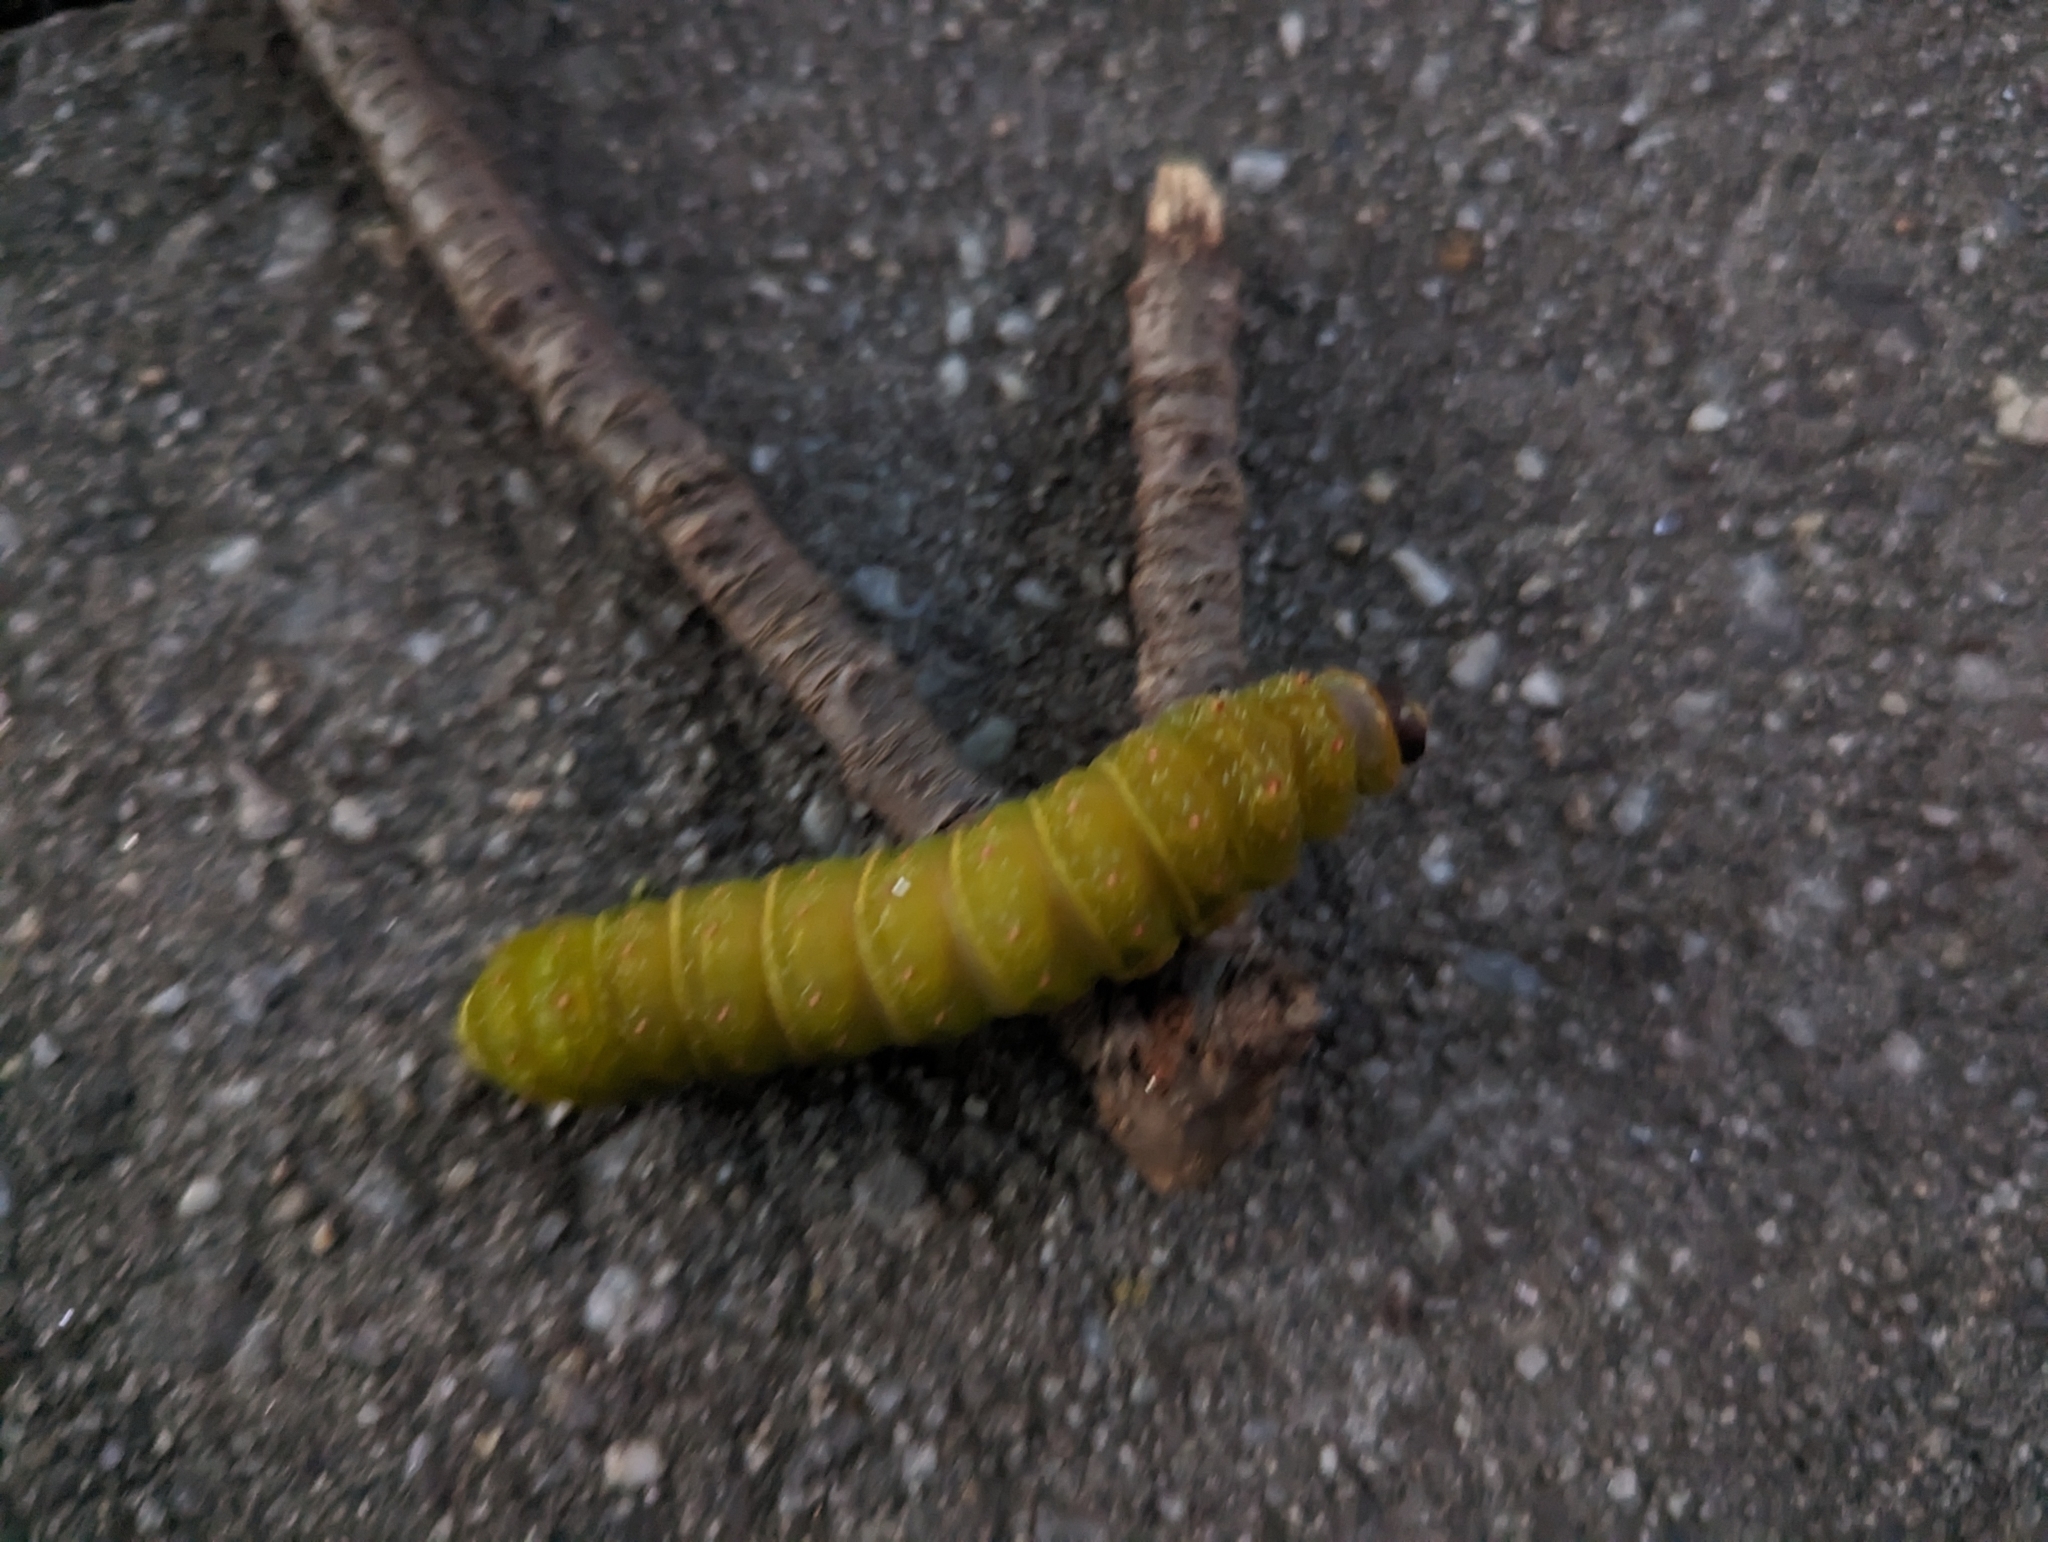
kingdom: Animalia
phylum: Arthropoda
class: Insecta
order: Lepidoptera
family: Saturniidae
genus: Actias
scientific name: Actias luna
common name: Luna moth
